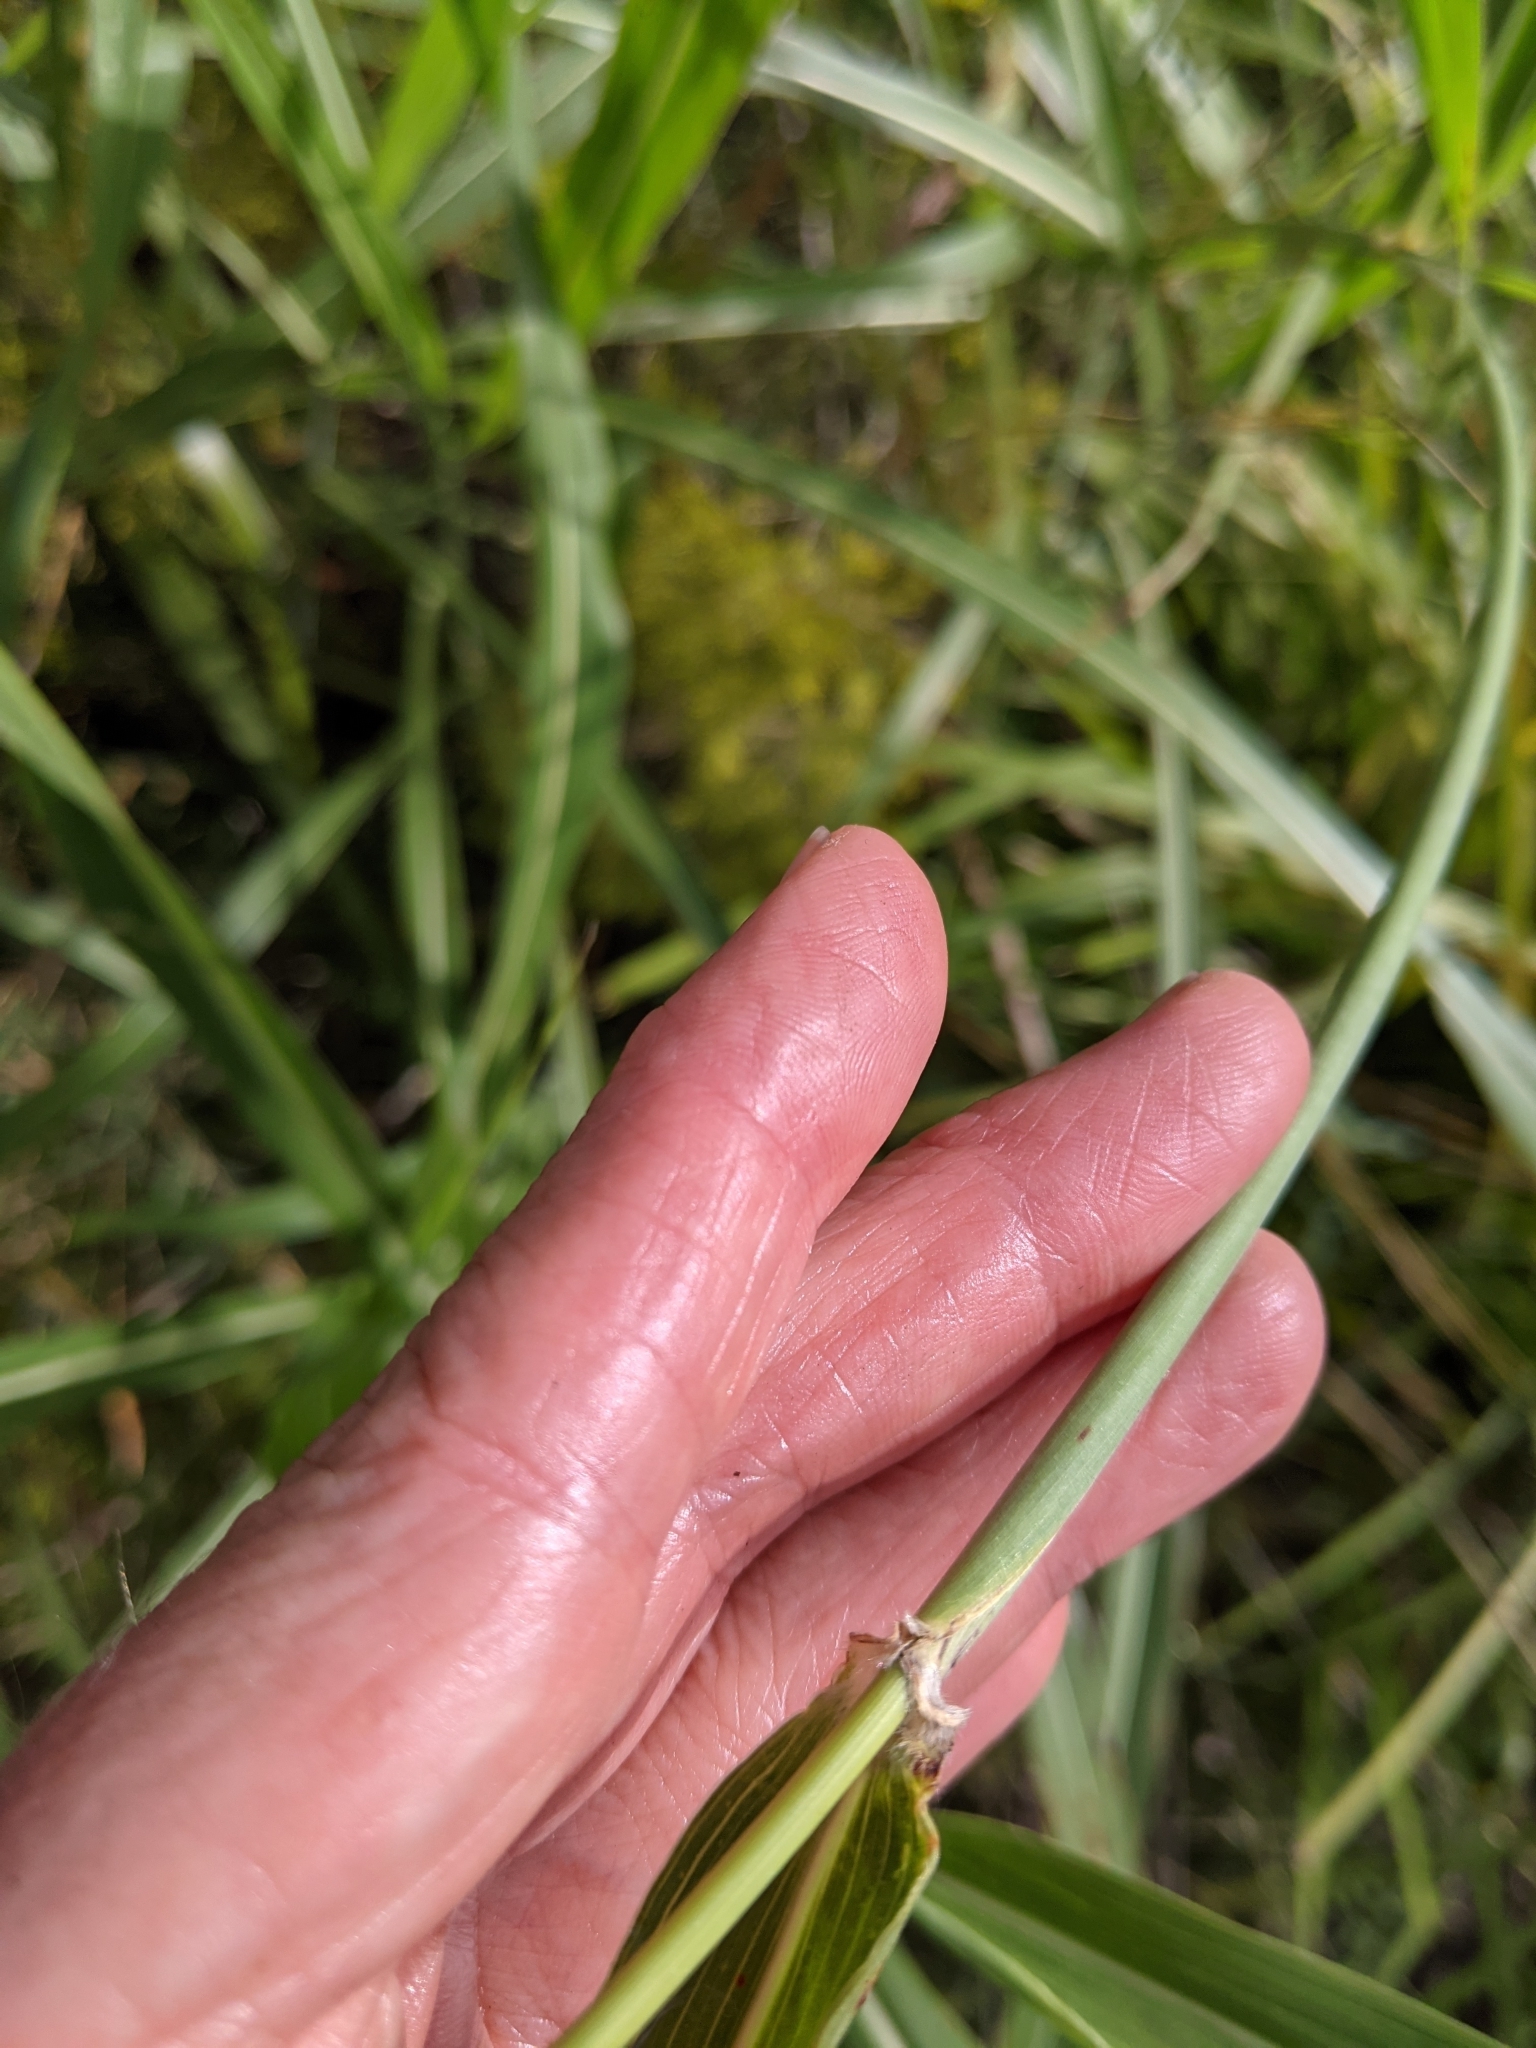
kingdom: Plantae
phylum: Tracheophyta
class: Liliopsida
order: Poales
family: Poaceae
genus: Sorghum
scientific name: Sorghum halepense
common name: Johnson-grass
